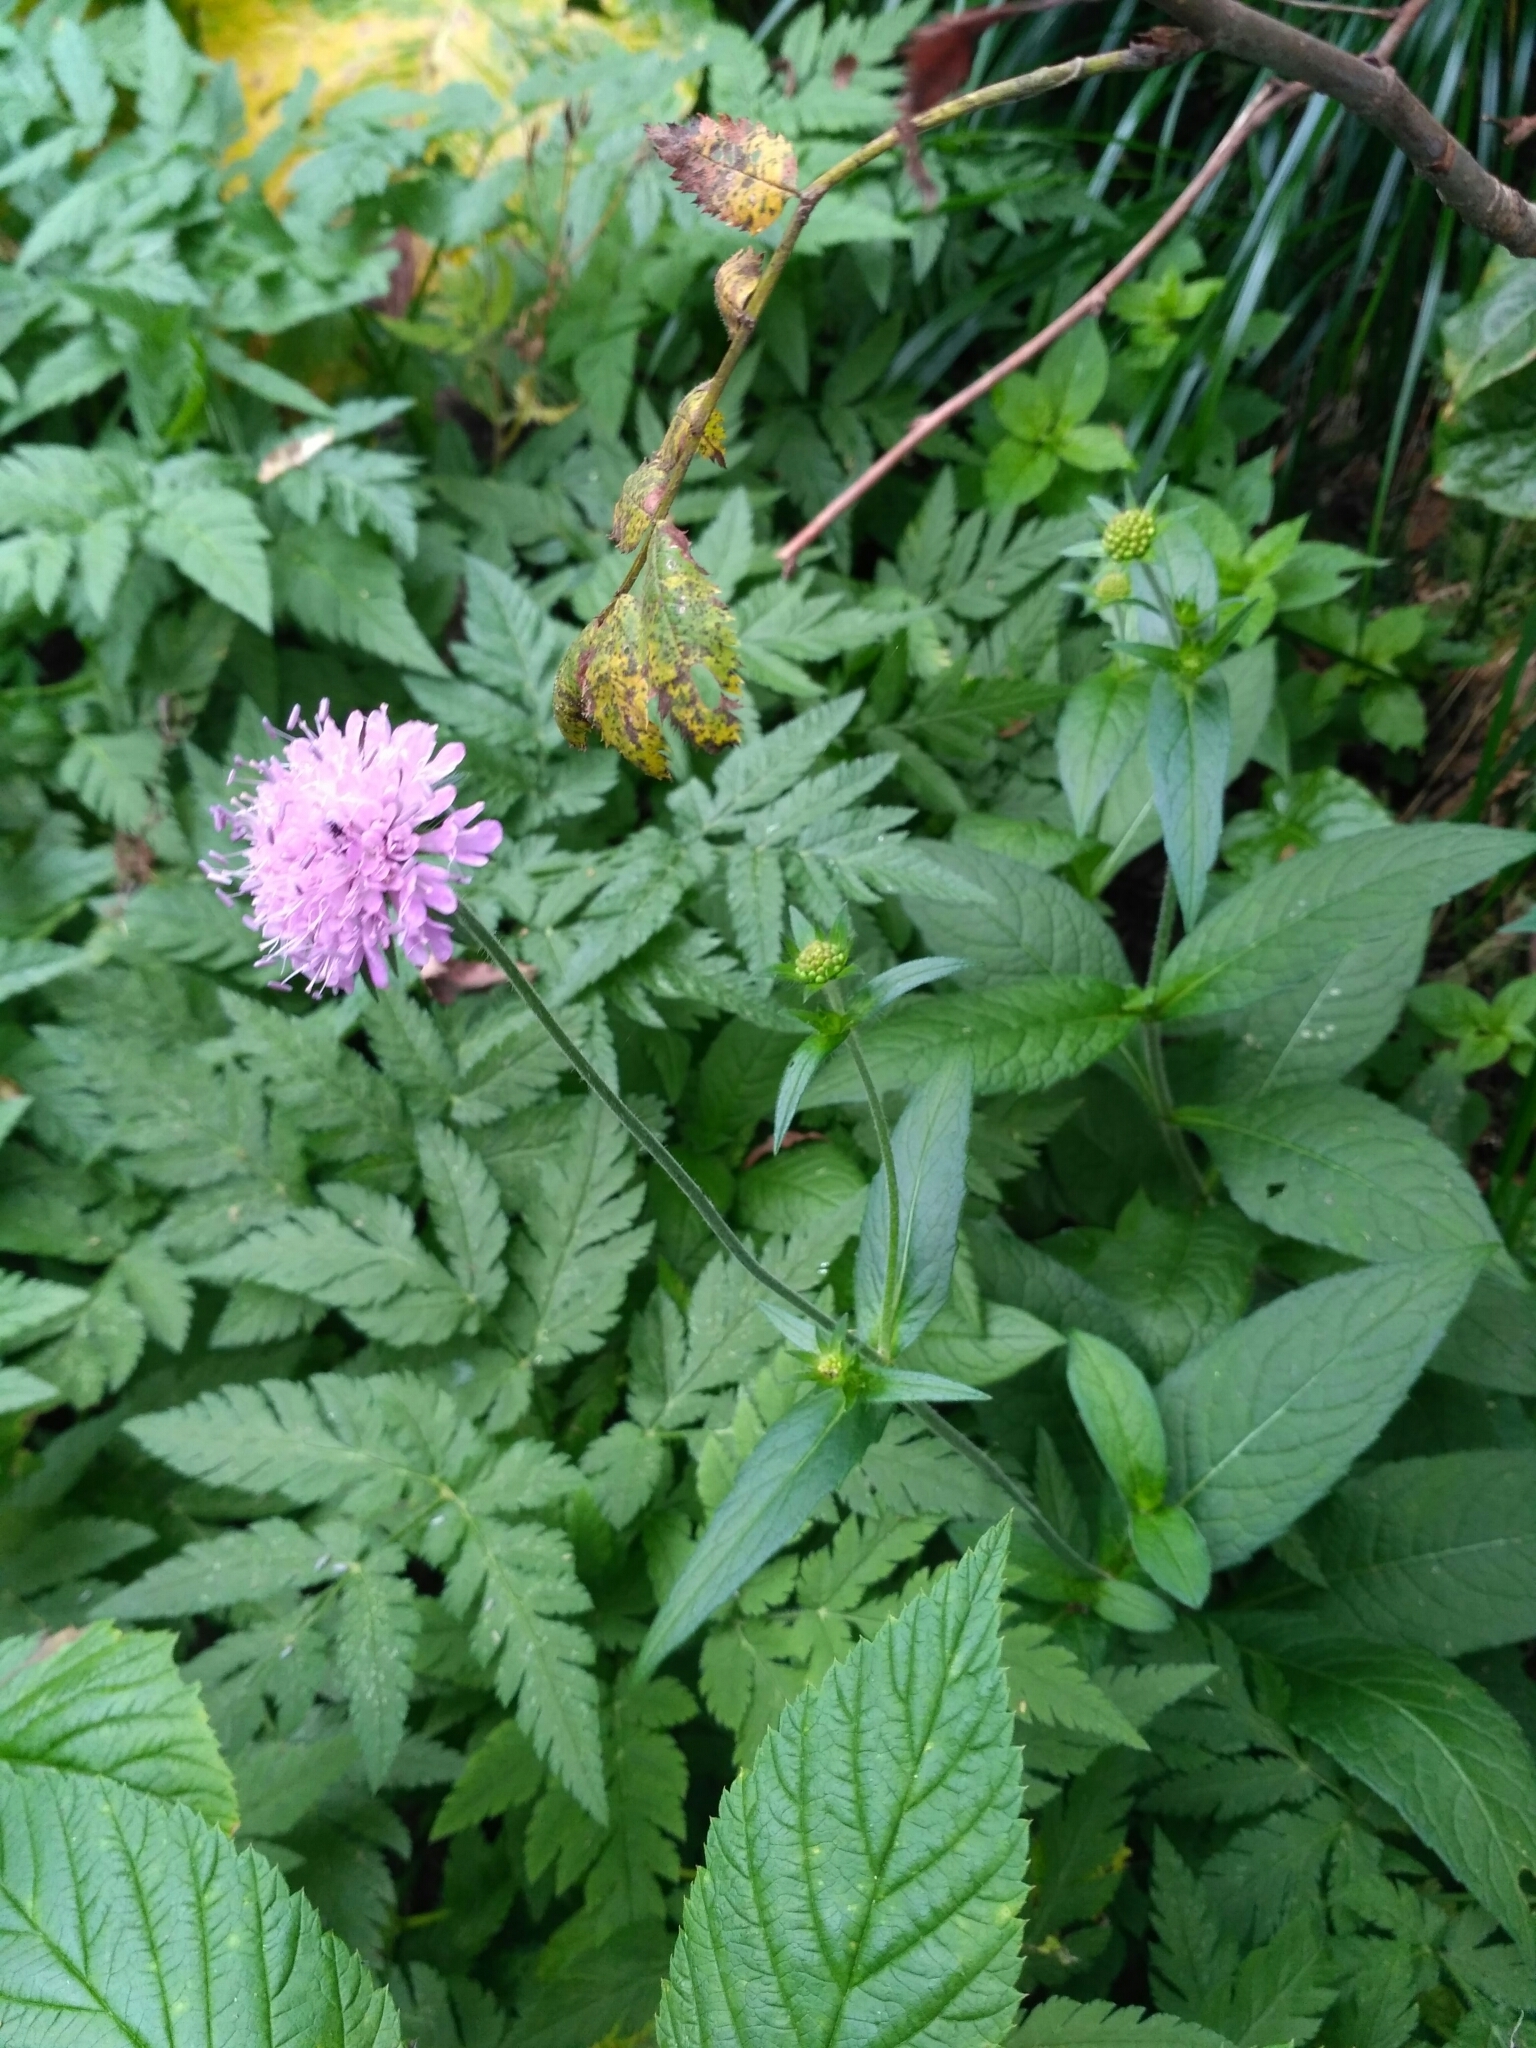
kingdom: Plantae
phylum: Tracheophyta
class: Magnoliopsida
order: Dipsacales
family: Caprifoliaceae
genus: Knautia
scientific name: Knautia dipsacifolia
